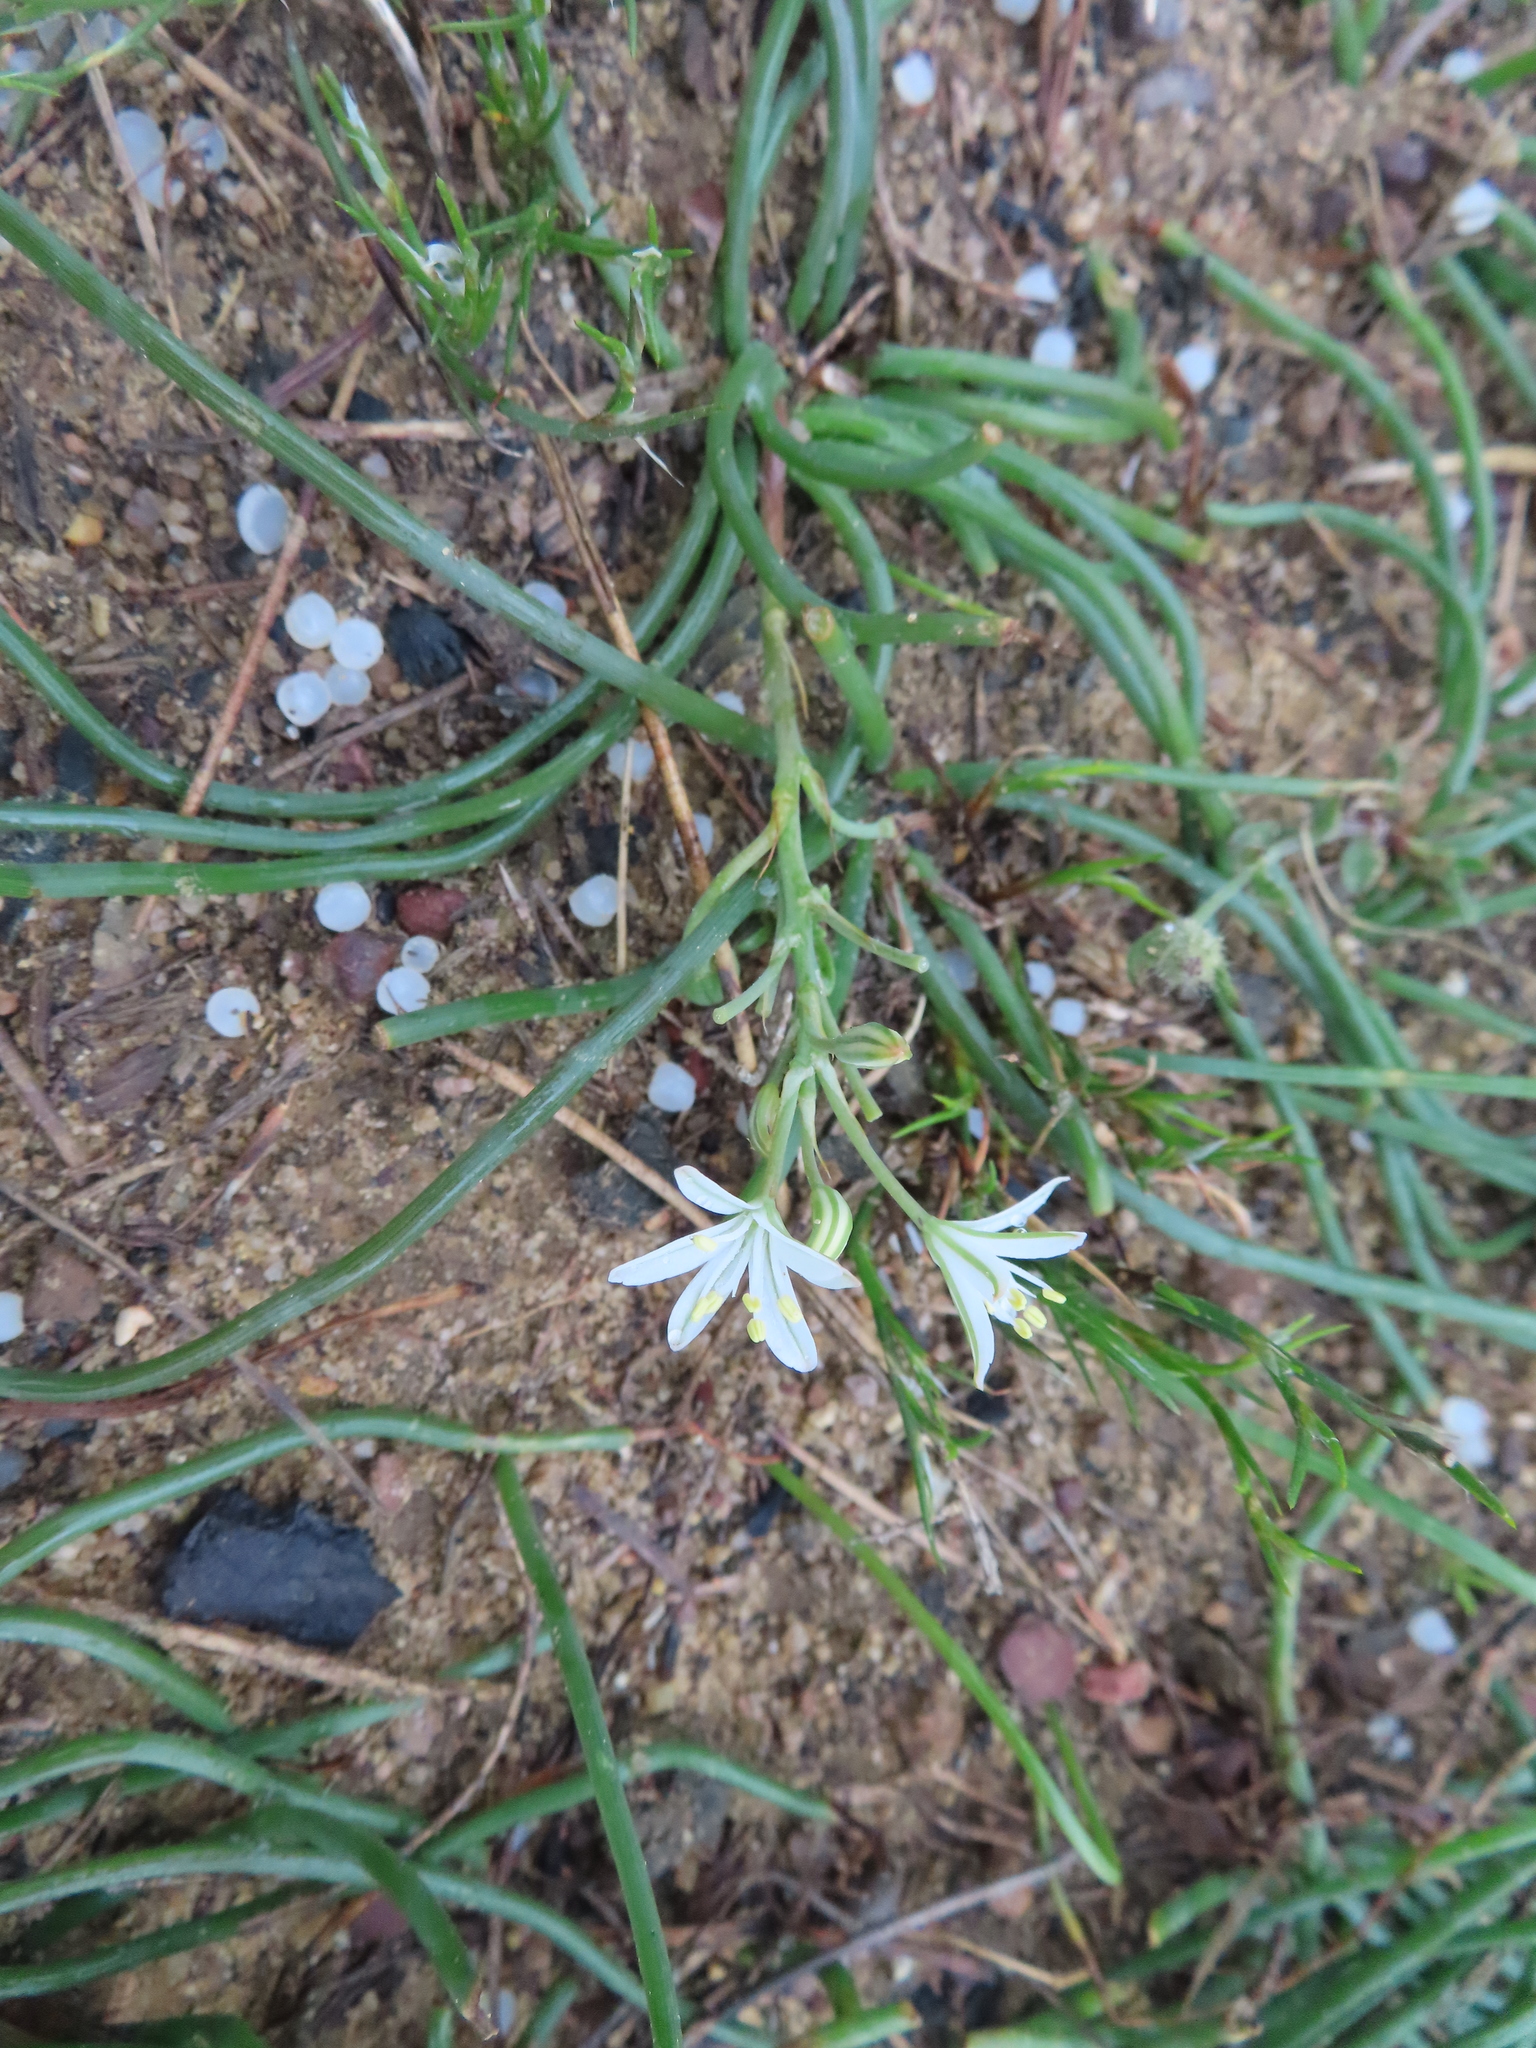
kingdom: Plantae
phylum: Tracheophyta
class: Liliopsida
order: Asparagales
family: Asphodelaceae
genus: Trachyandra
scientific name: Trachyandra chlamydophylla
